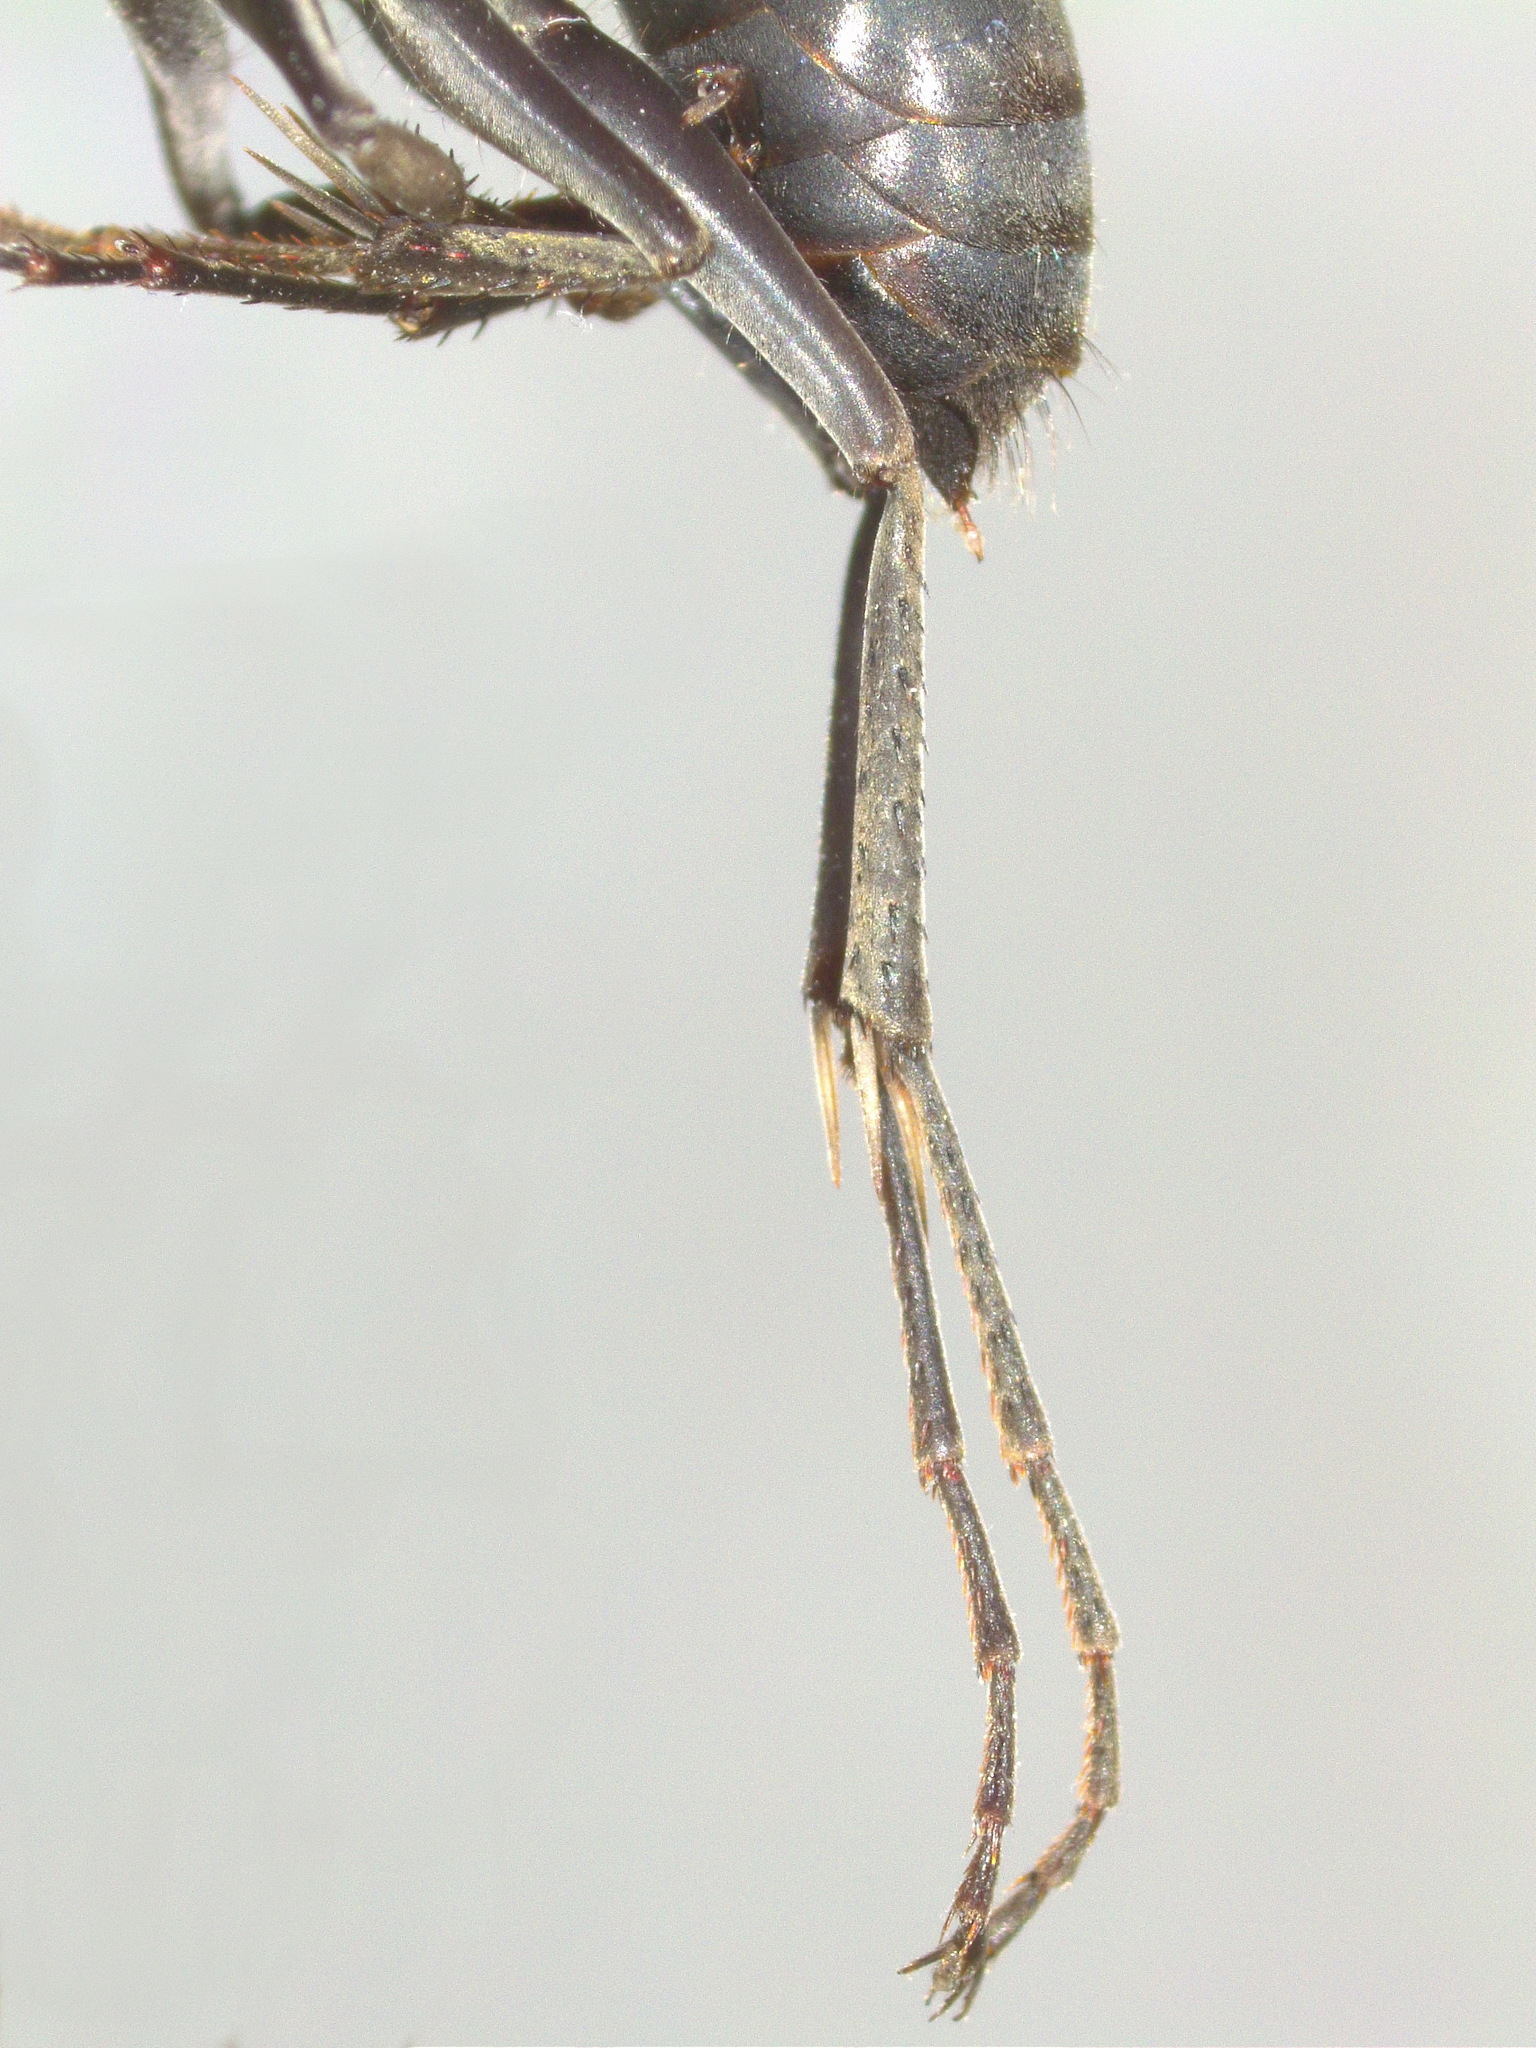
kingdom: Animalia
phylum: Arthropoda
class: Insecta
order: Hymenoptera
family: Pompilidae
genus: Calopompilus
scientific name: Calopompilus
